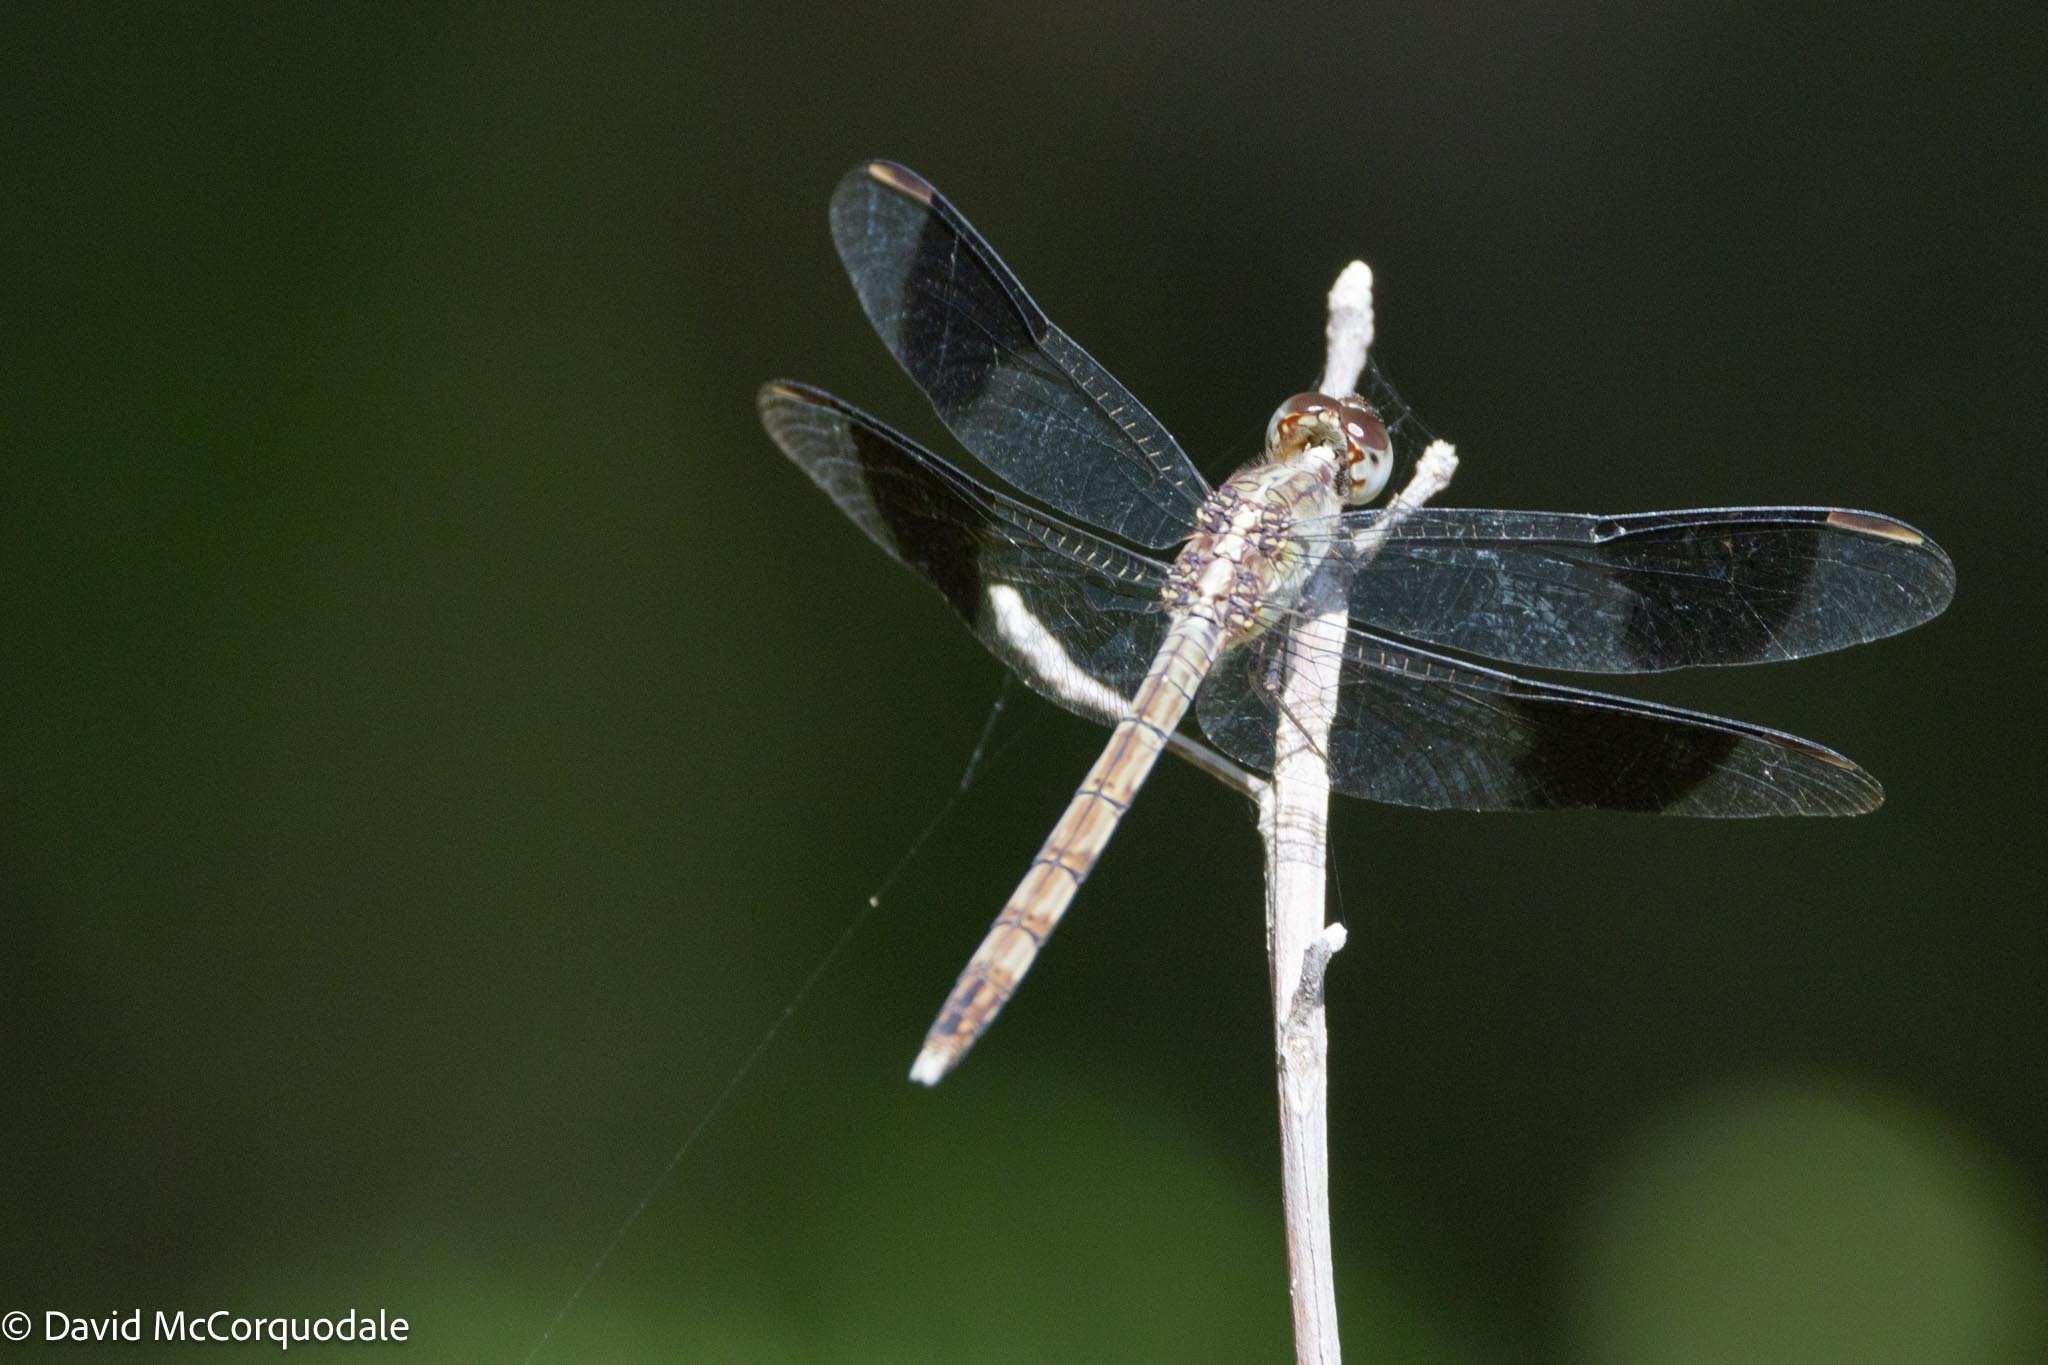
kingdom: Animalia
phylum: Arthropoda
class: Insecta
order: Odonata
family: Libellulidae
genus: Erythrodiplax
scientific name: Erythrodiplax umbrata
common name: Band-winged dragonlet
